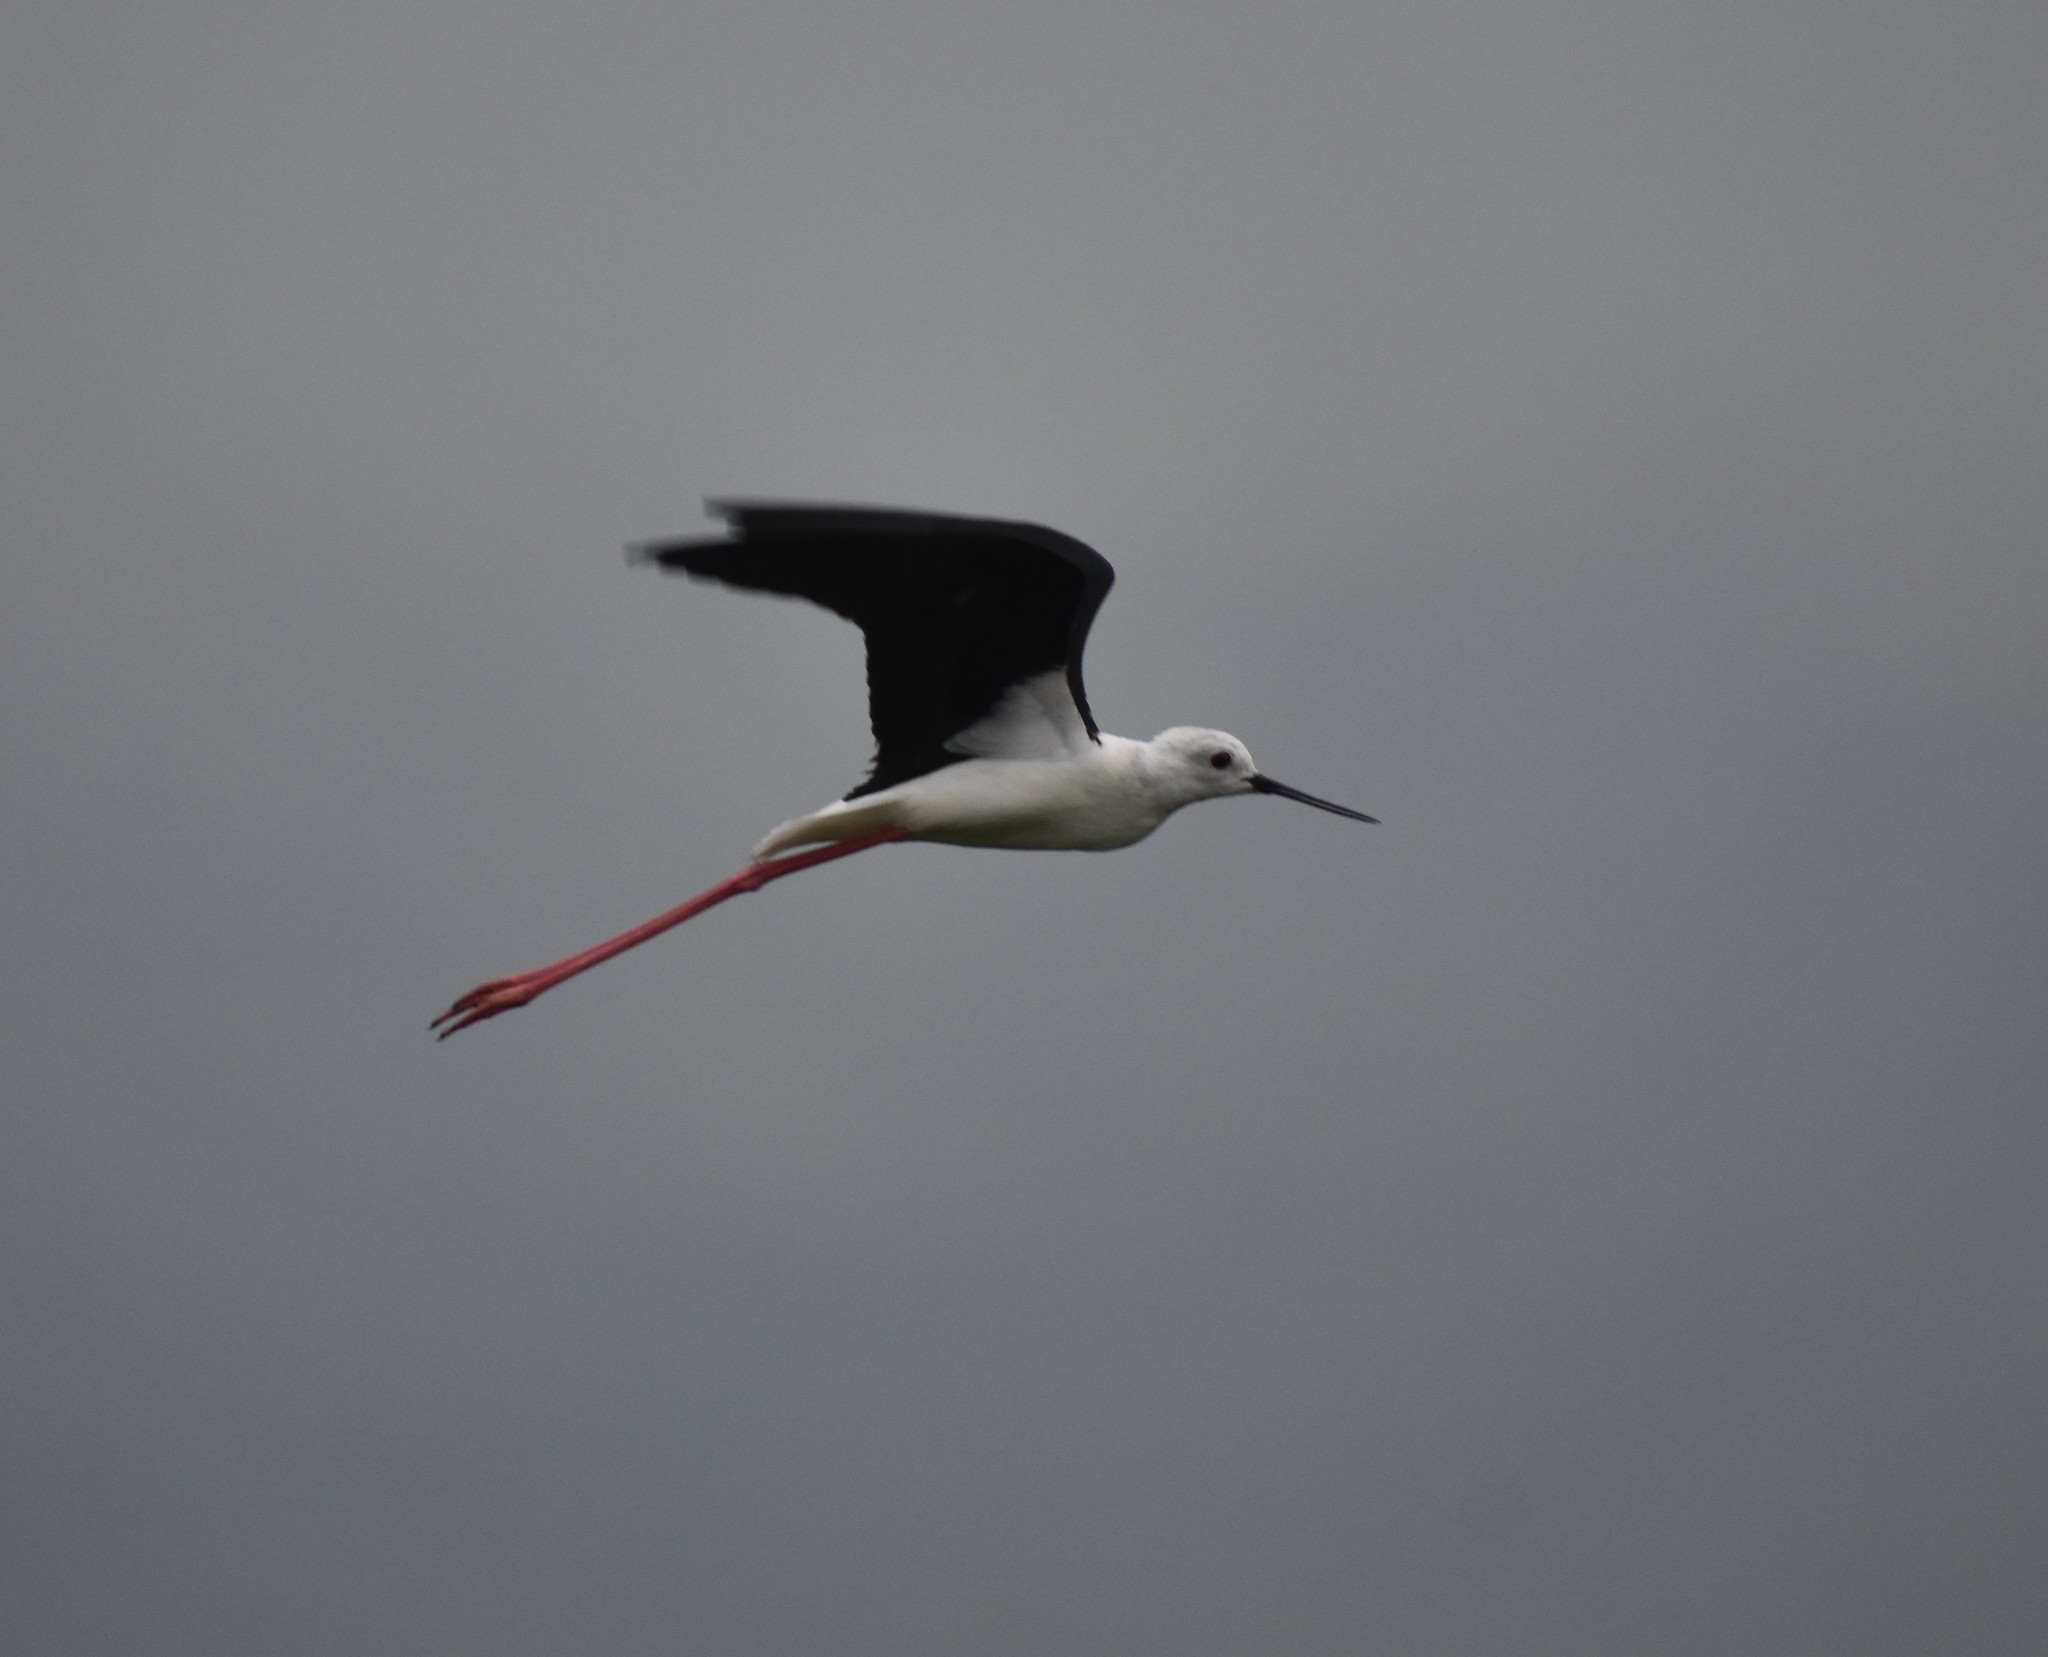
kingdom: Animalia
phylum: Chordata
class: Aves
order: Charadriiformes
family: Recurvirostridae
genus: Himantopus
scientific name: Himantopus himantopus
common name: Black-winged stilt
